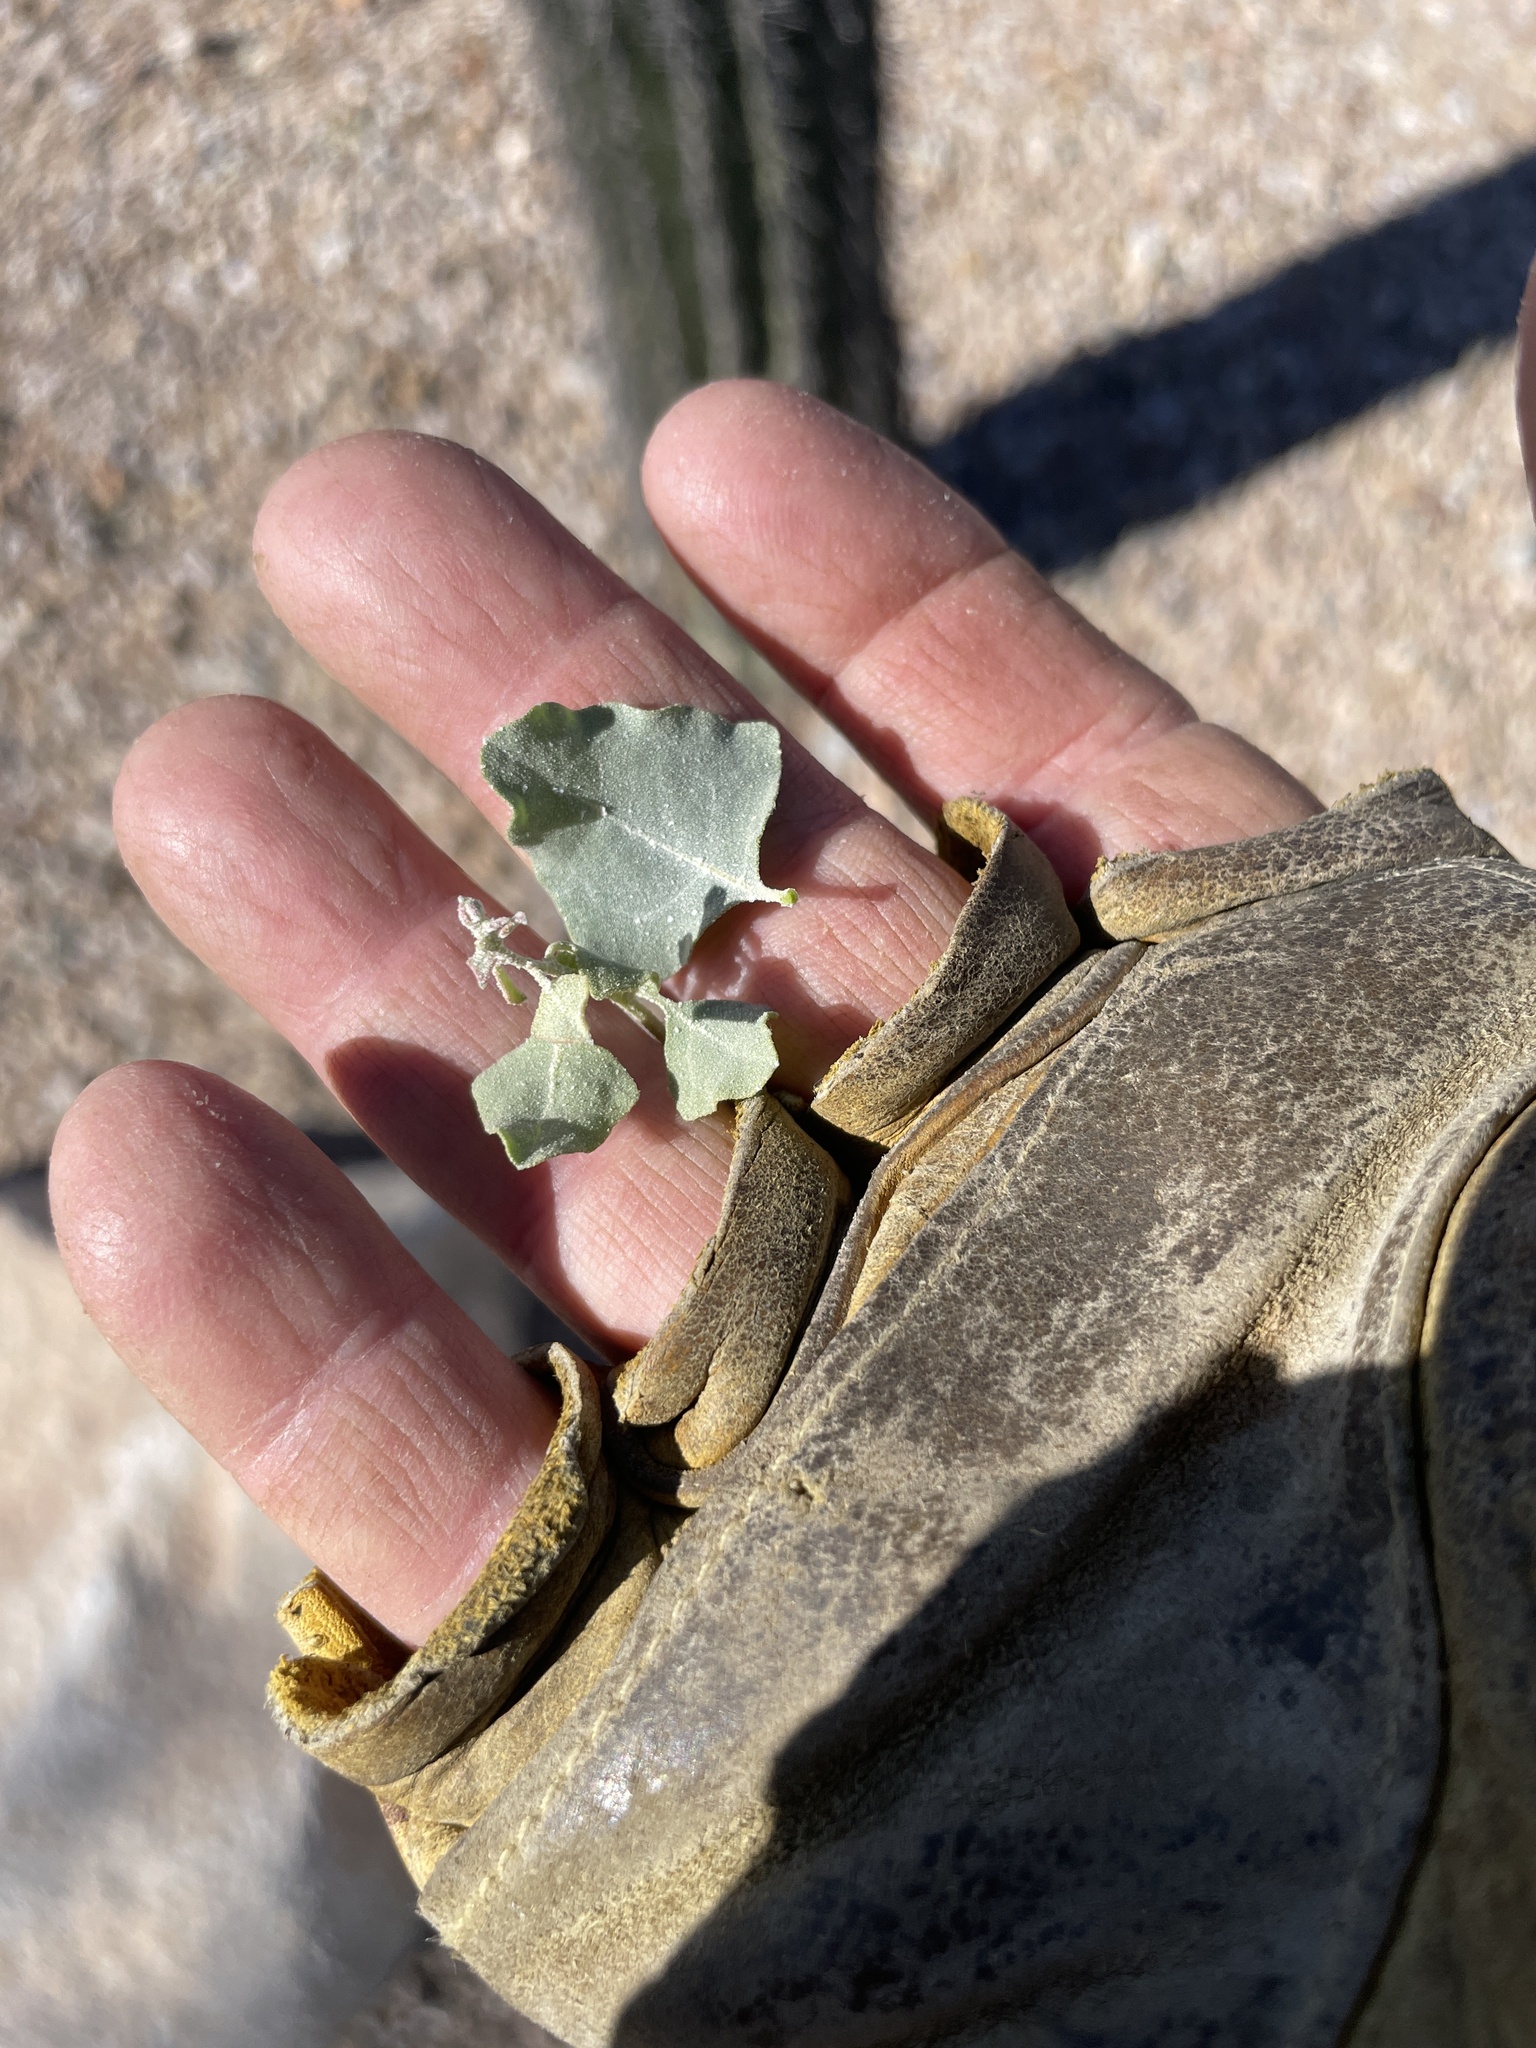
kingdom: Plantae
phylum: Tracheophyta
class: Magnoliopsida
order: Caryophyllales
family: Amaranthaceae
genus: Atriplex
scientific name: Atriplex lentiformis
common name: Big saltbush
